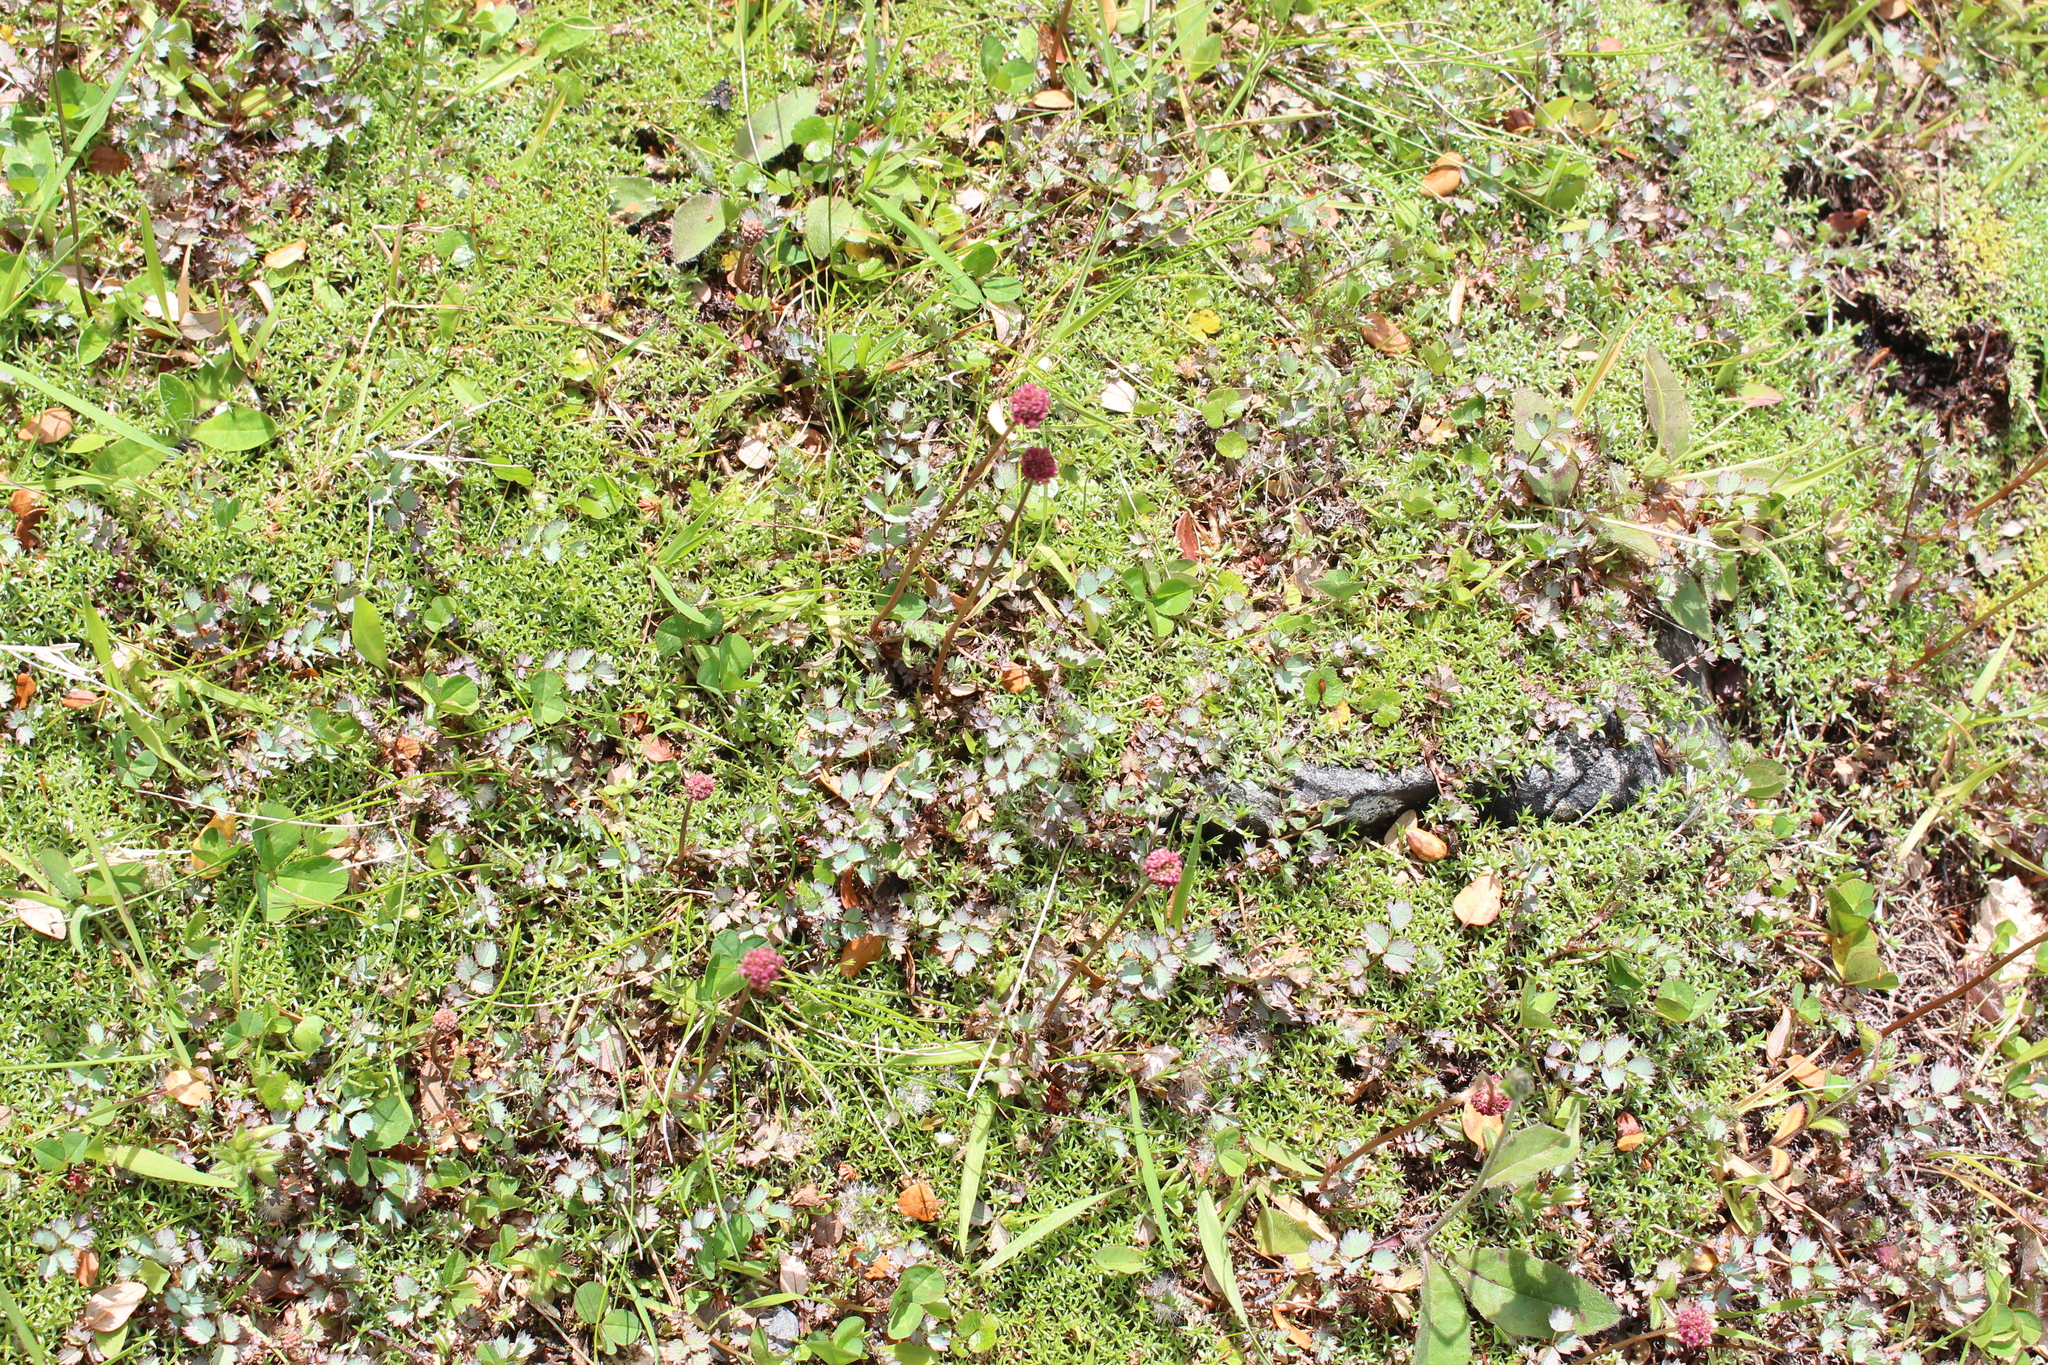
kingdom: Plantae
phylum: Tracheophyta
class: Magnoliopsida
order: Rosales
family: Rosaceae
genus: Acaena
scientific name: Acaena inermis
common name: Spineless acaena
